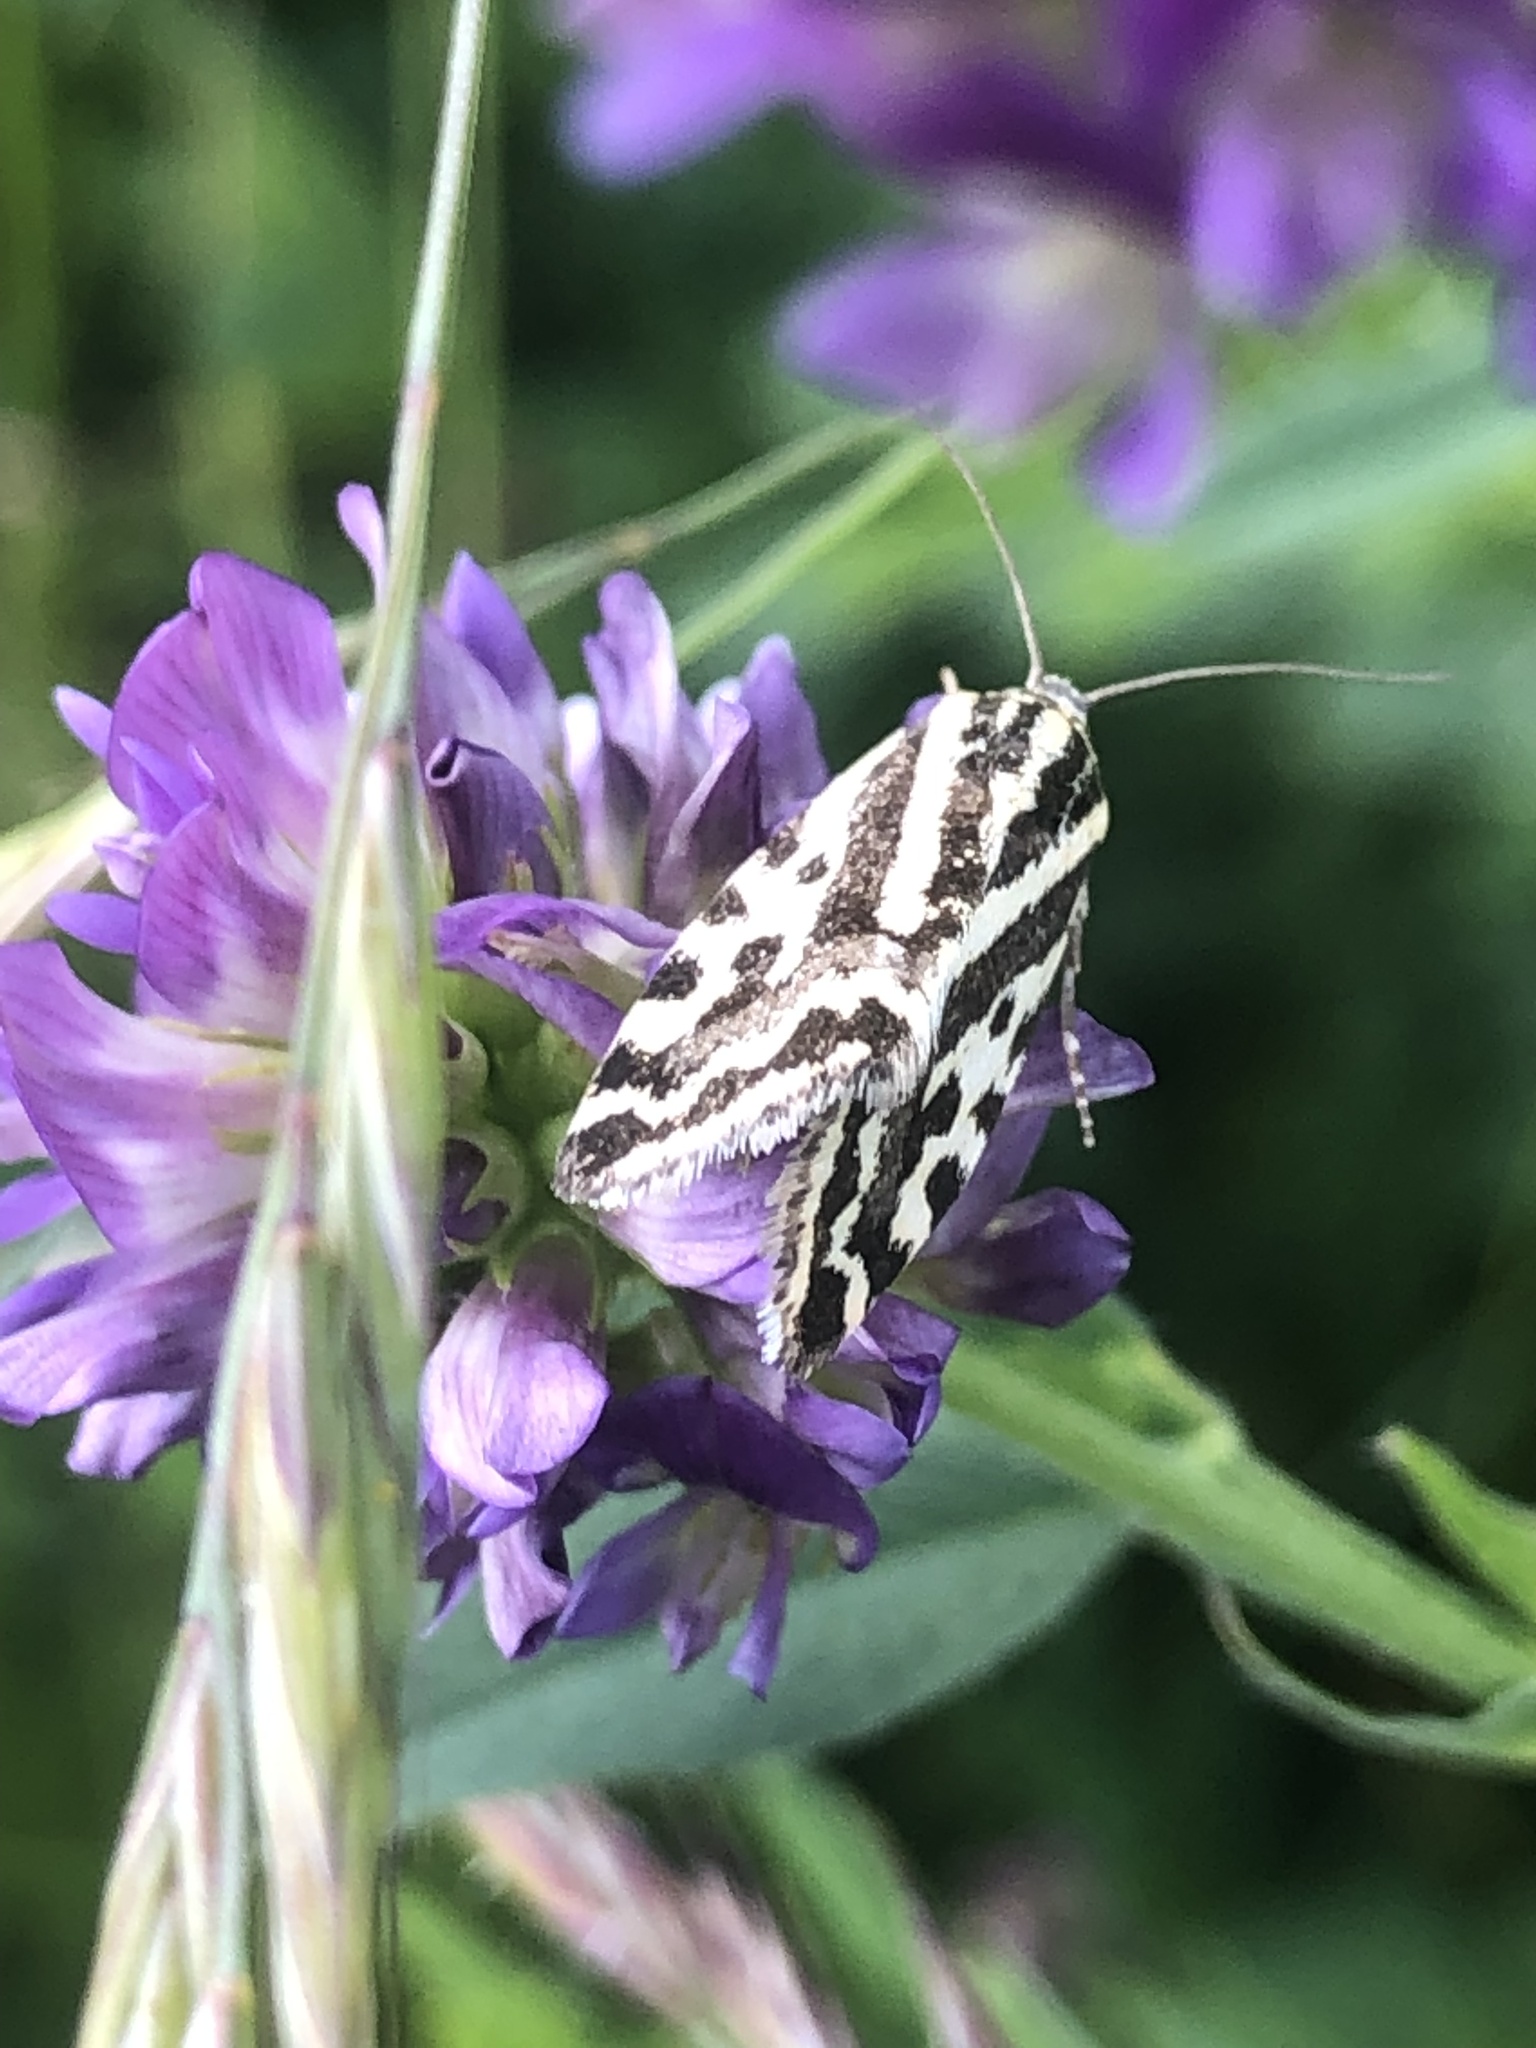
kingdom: Animalia
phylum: Arthropoda
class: Insecta
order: Lepidoptera
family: Noctuidae
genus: Acontia
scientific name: Acontia trabealis
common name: Spotted sulphur
